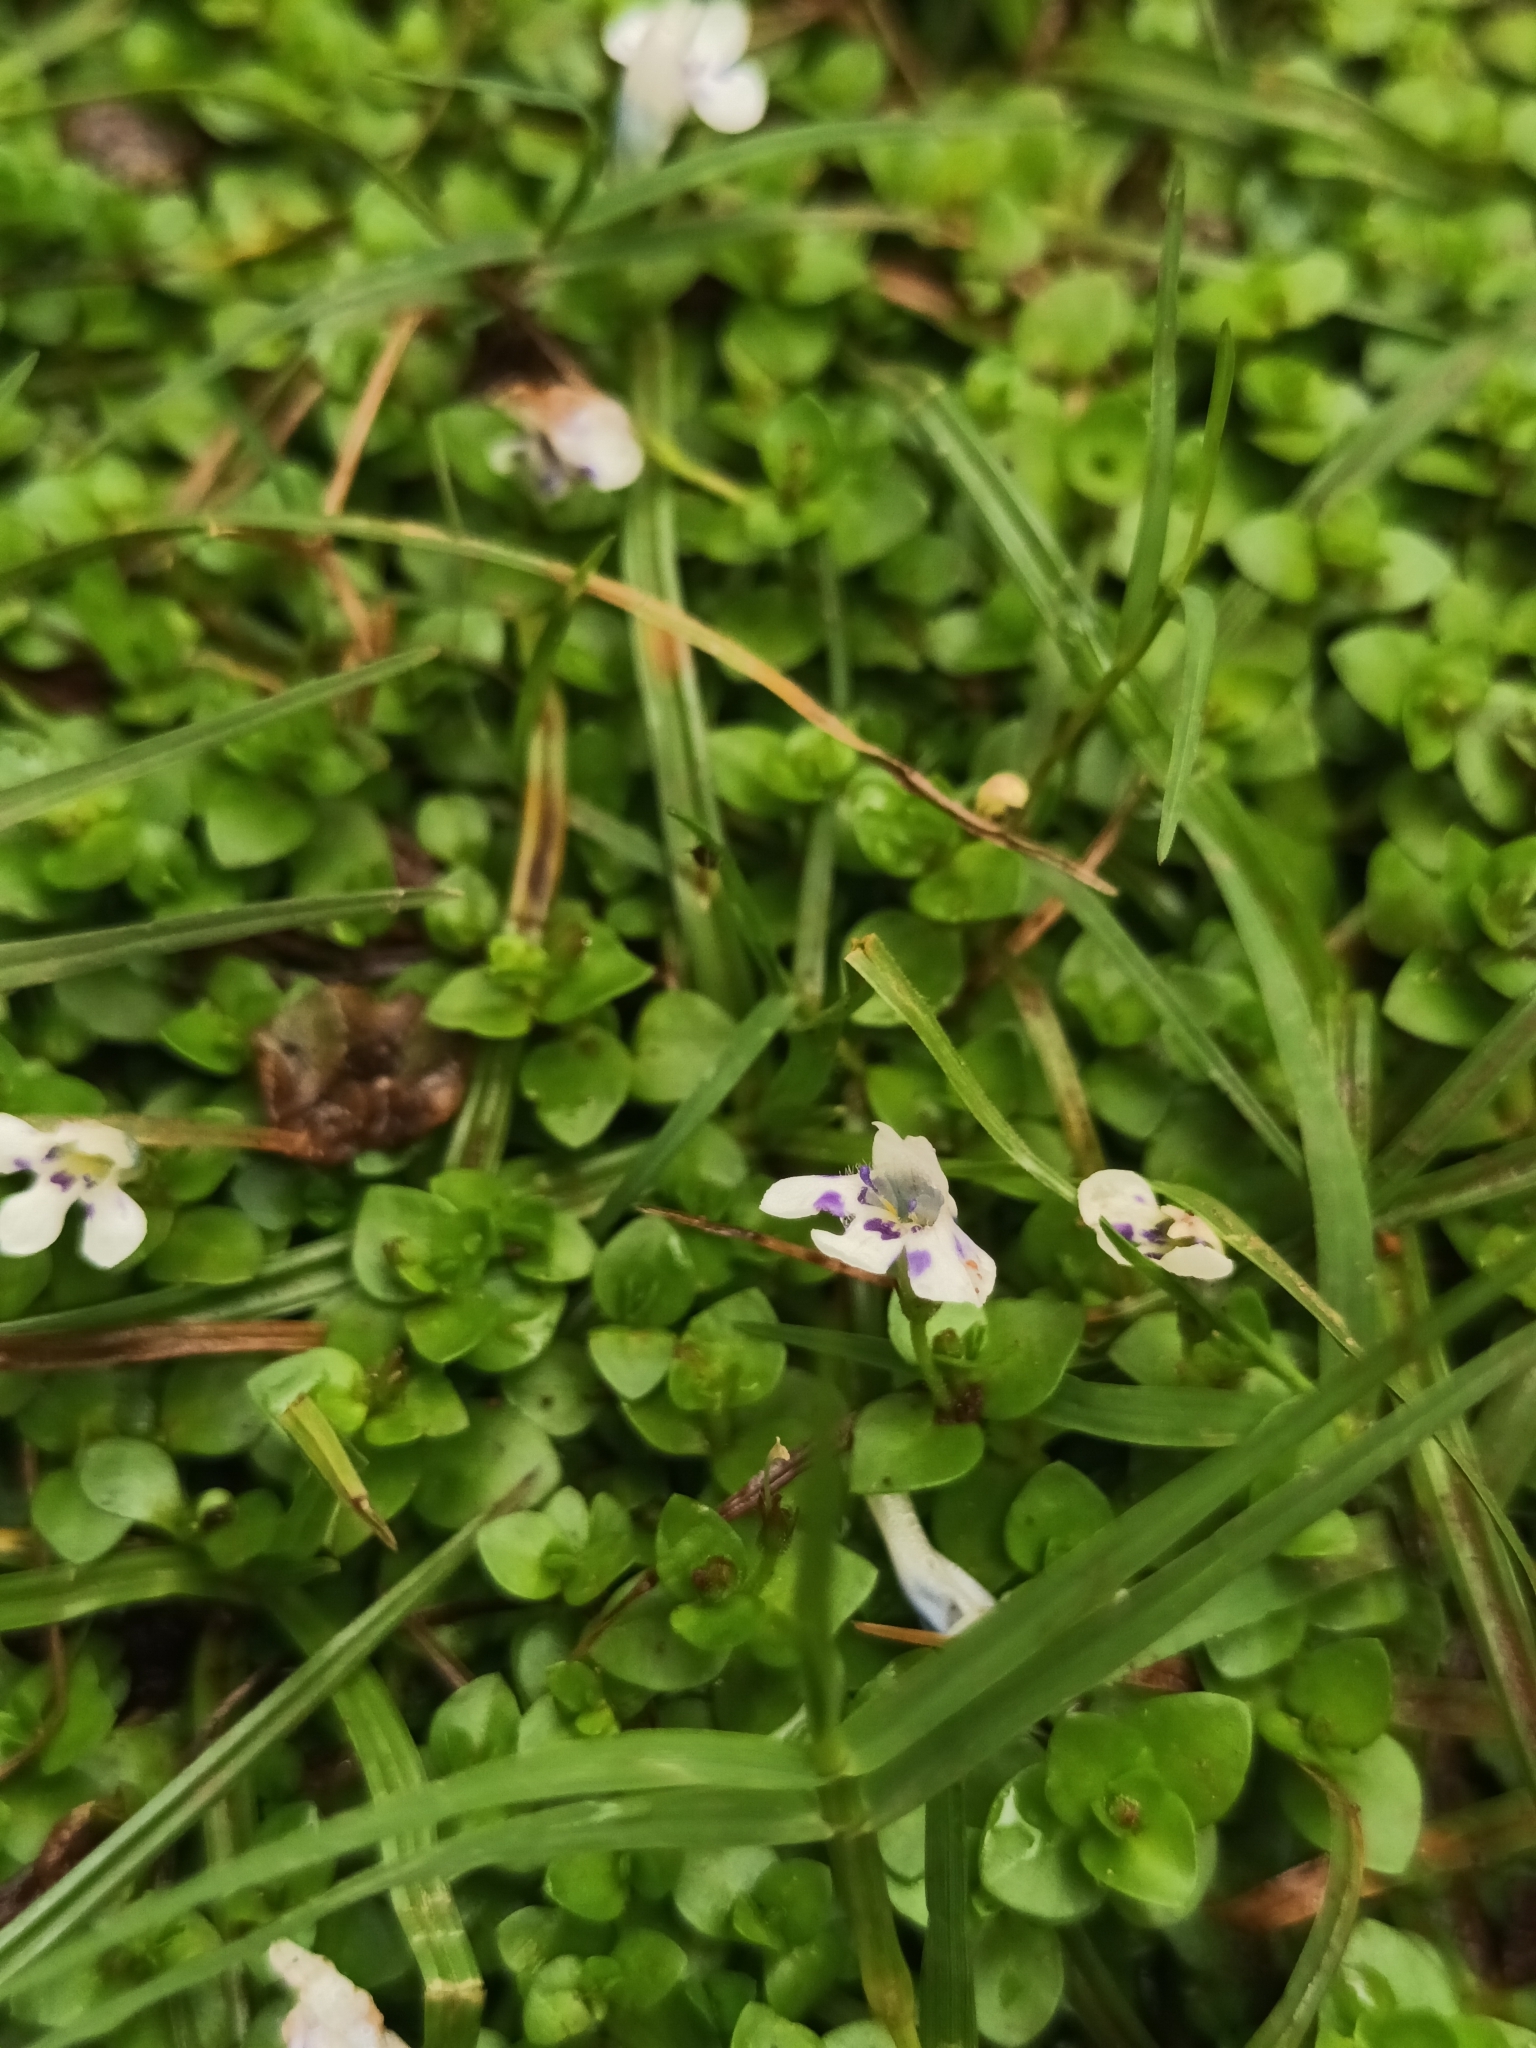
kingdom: Plantae
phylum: Tracheophyta
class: Magnoliopsida
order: Lamiales
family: Linderniaceae
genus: Lindernia
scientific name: Lindernia rotundifolia
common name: Baby’s tears
